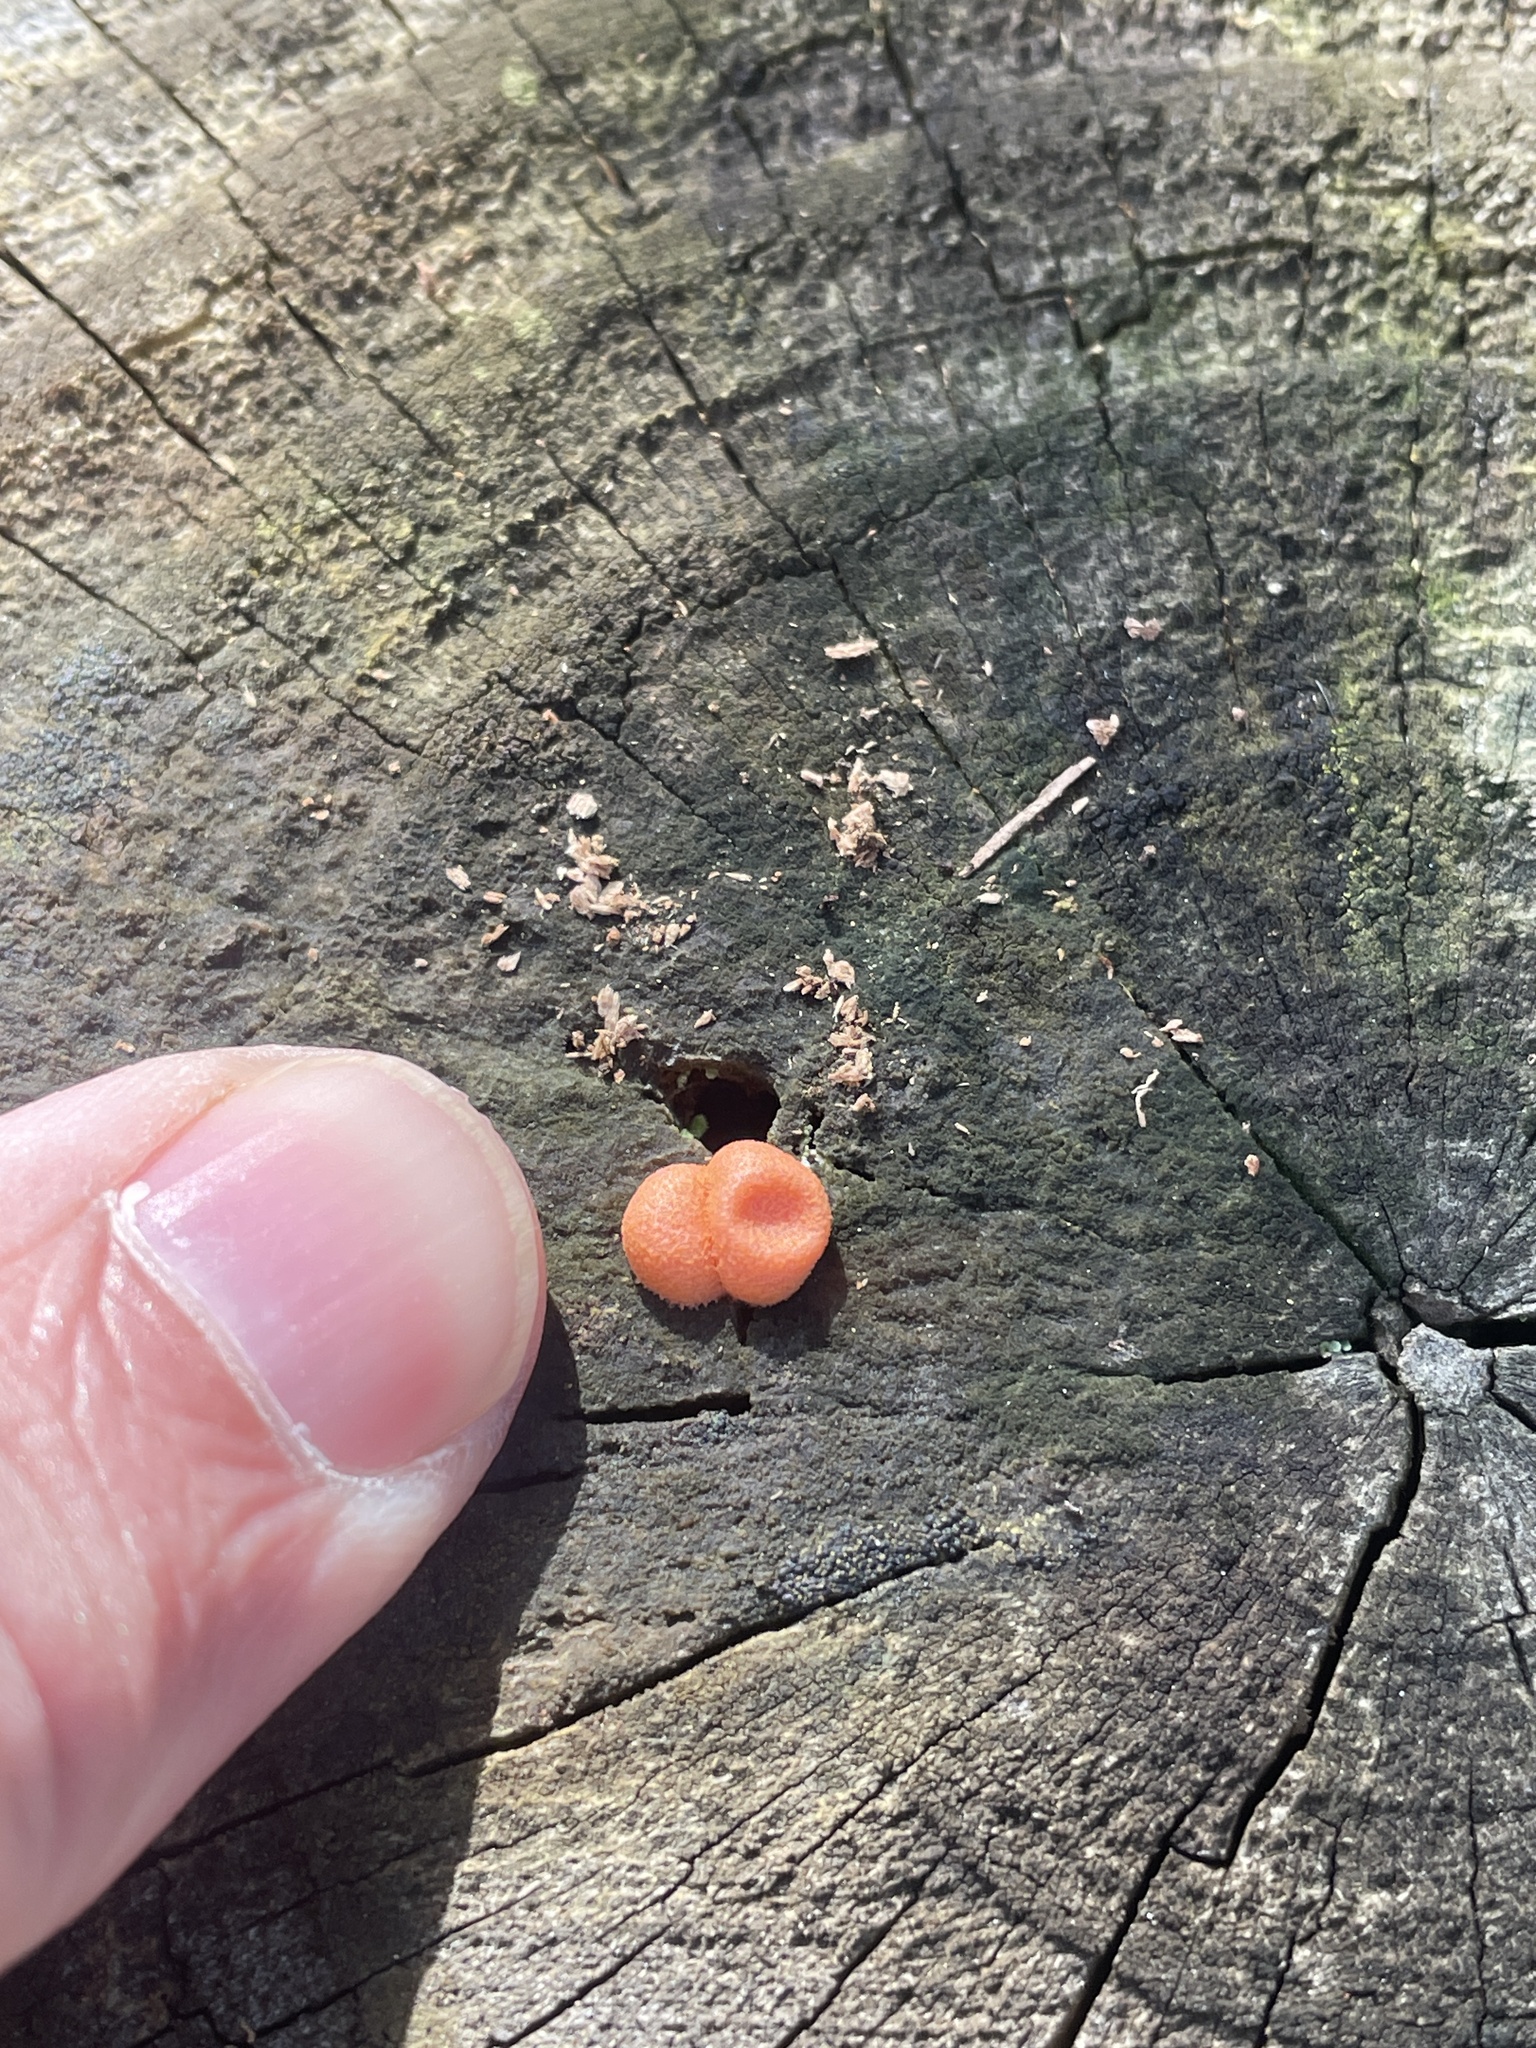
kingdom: Protozoa
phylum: Mycetozoa
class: Myxomycetes
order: Cribrariales
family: Tubiferaceae
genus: Lycogala
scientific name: Lycogala epidendrum
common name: Wolf's milk
